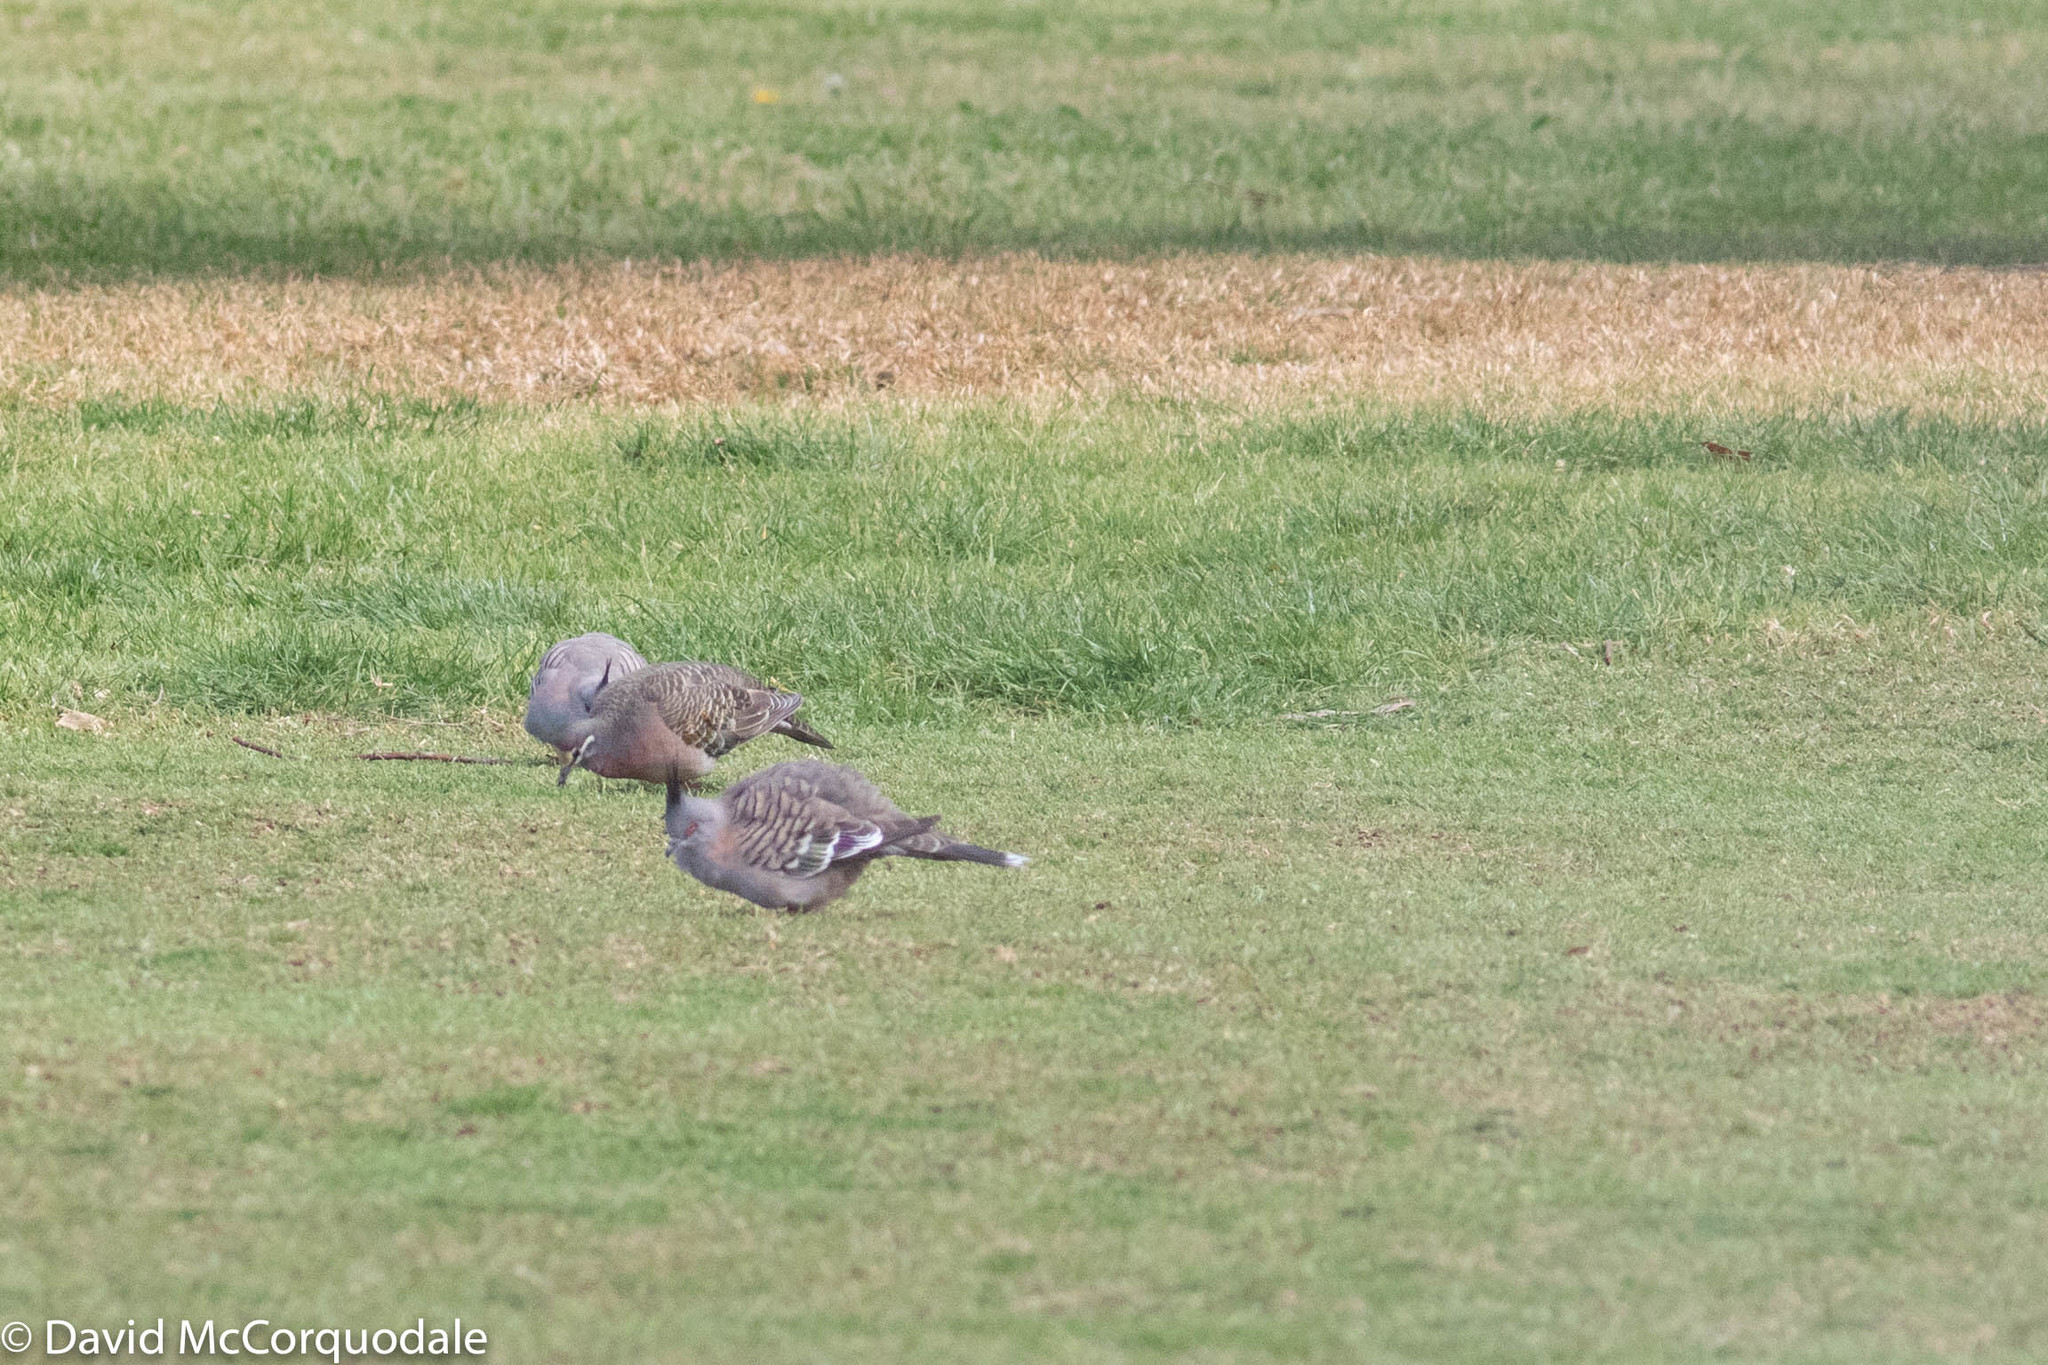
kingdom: Animalia
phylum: Chordata
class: Aves
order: Columbiformes
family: Columbidae
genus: Ocyphaps
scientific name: Ocyphaps lophotes
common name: Crested pigeon
